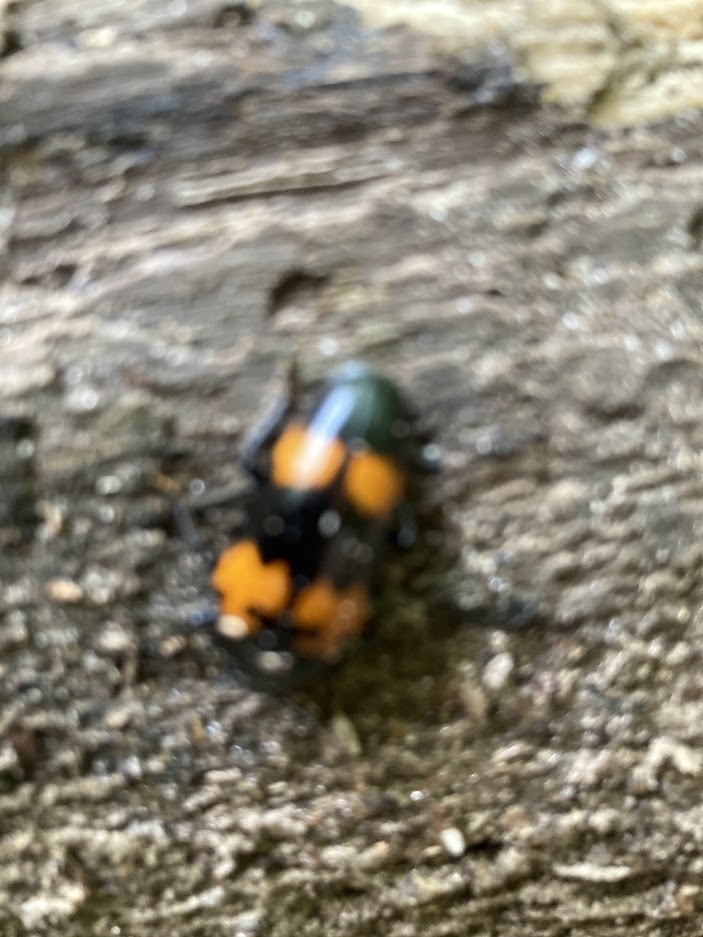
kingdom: Animalia
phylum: Arthropoda
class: Insecta
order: Coleoptera
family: Erotylidae
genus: Megalodacne
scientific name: Megalodacne heros
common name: Pleasing fungus beetle
